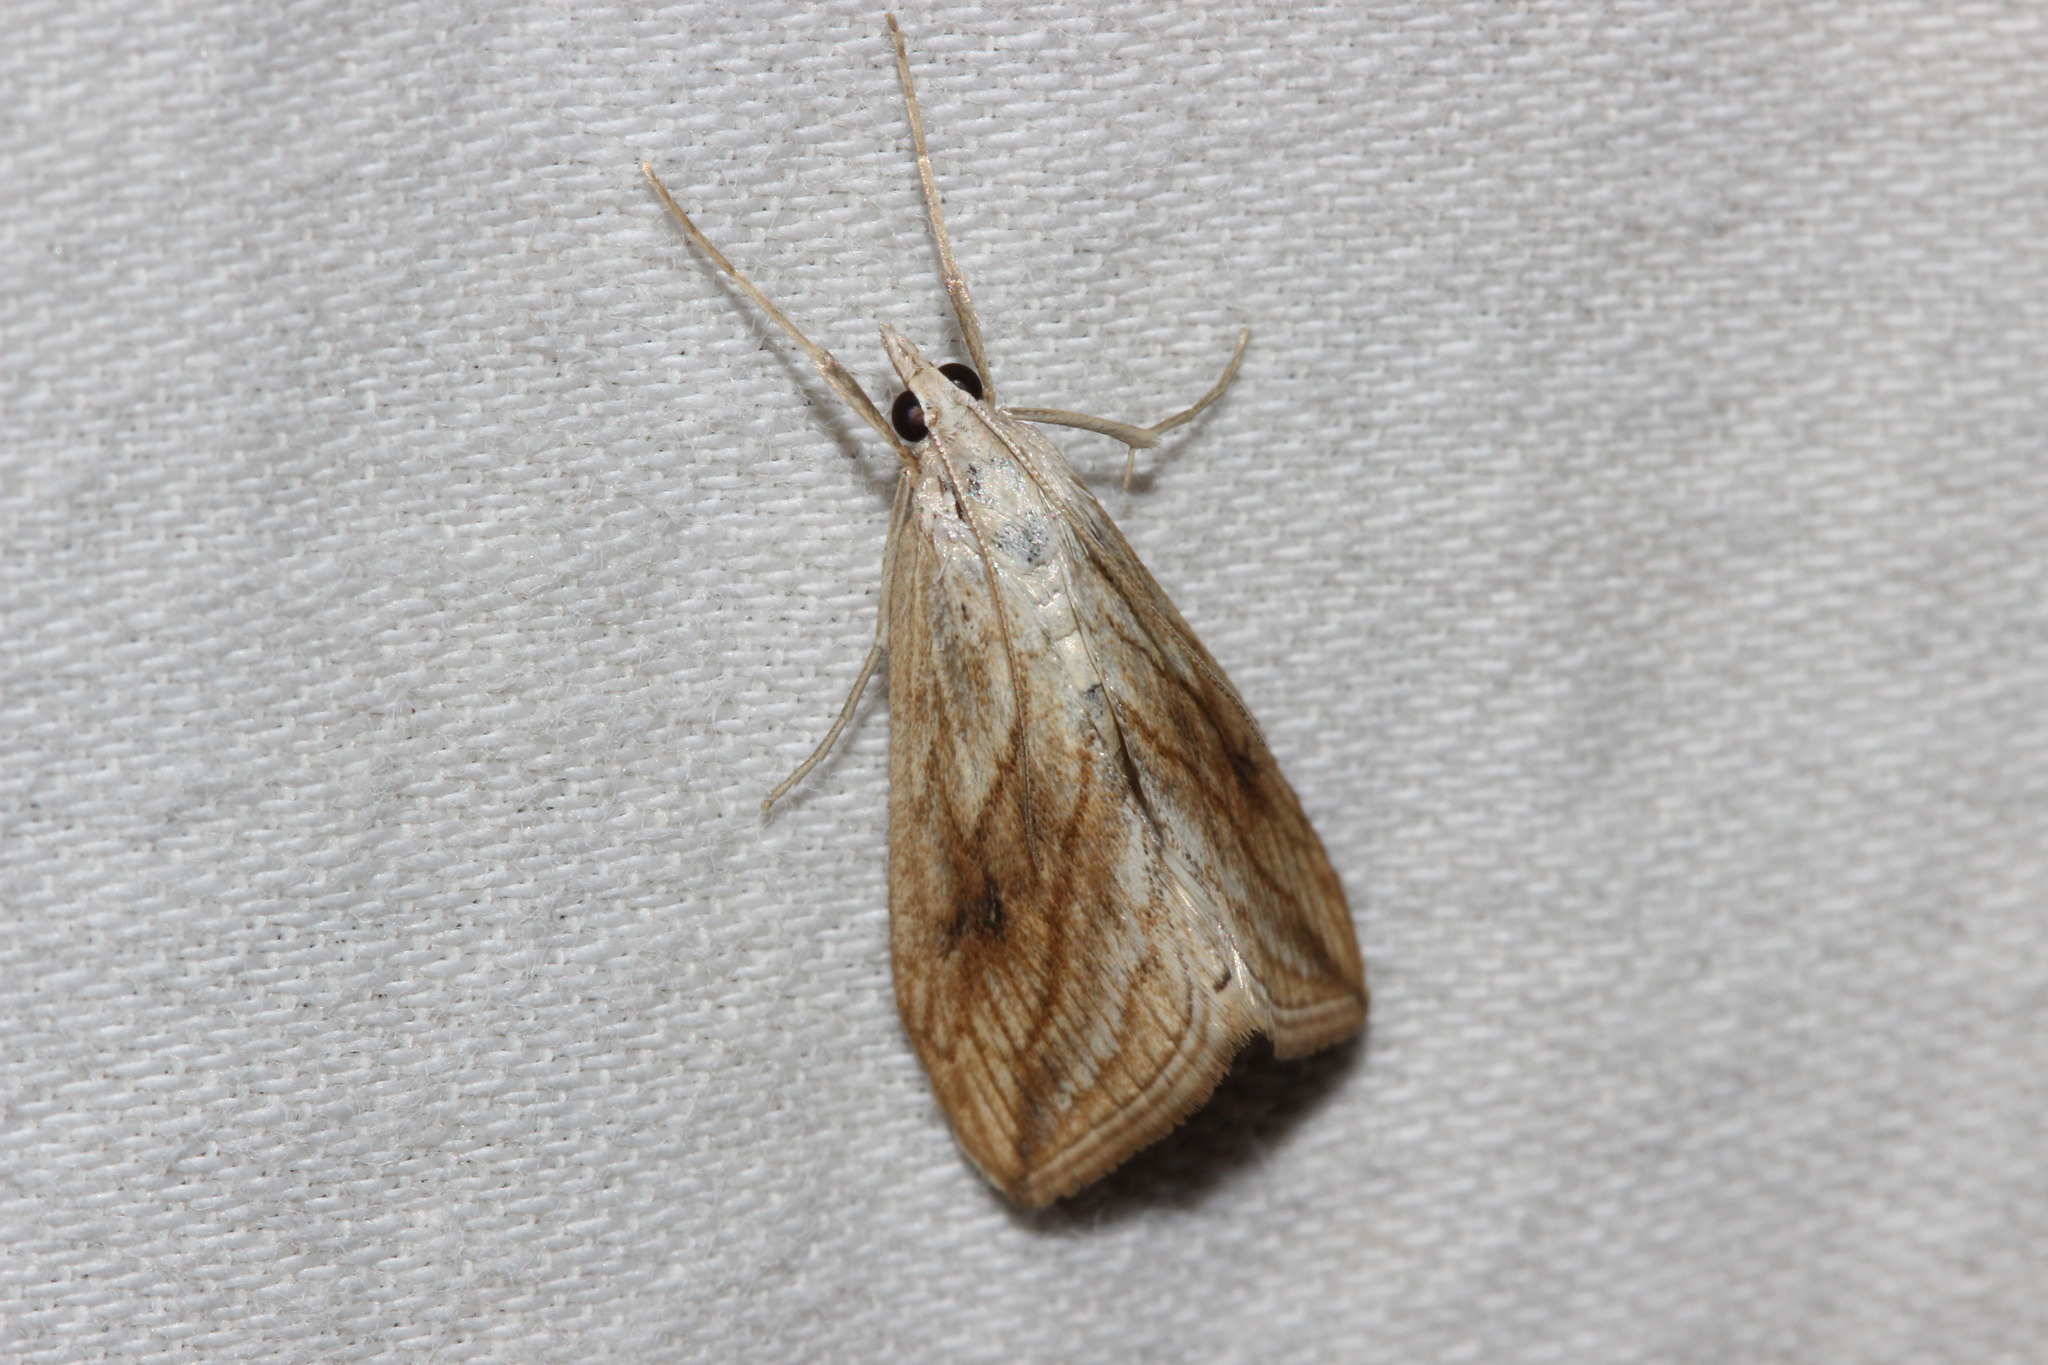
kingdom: Animalia
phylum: Arthropoda
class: Insecta
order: Lepidoptera
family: Crambidae
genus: Evergestis
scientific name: Evergestis forficalis
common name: Garden pebble
